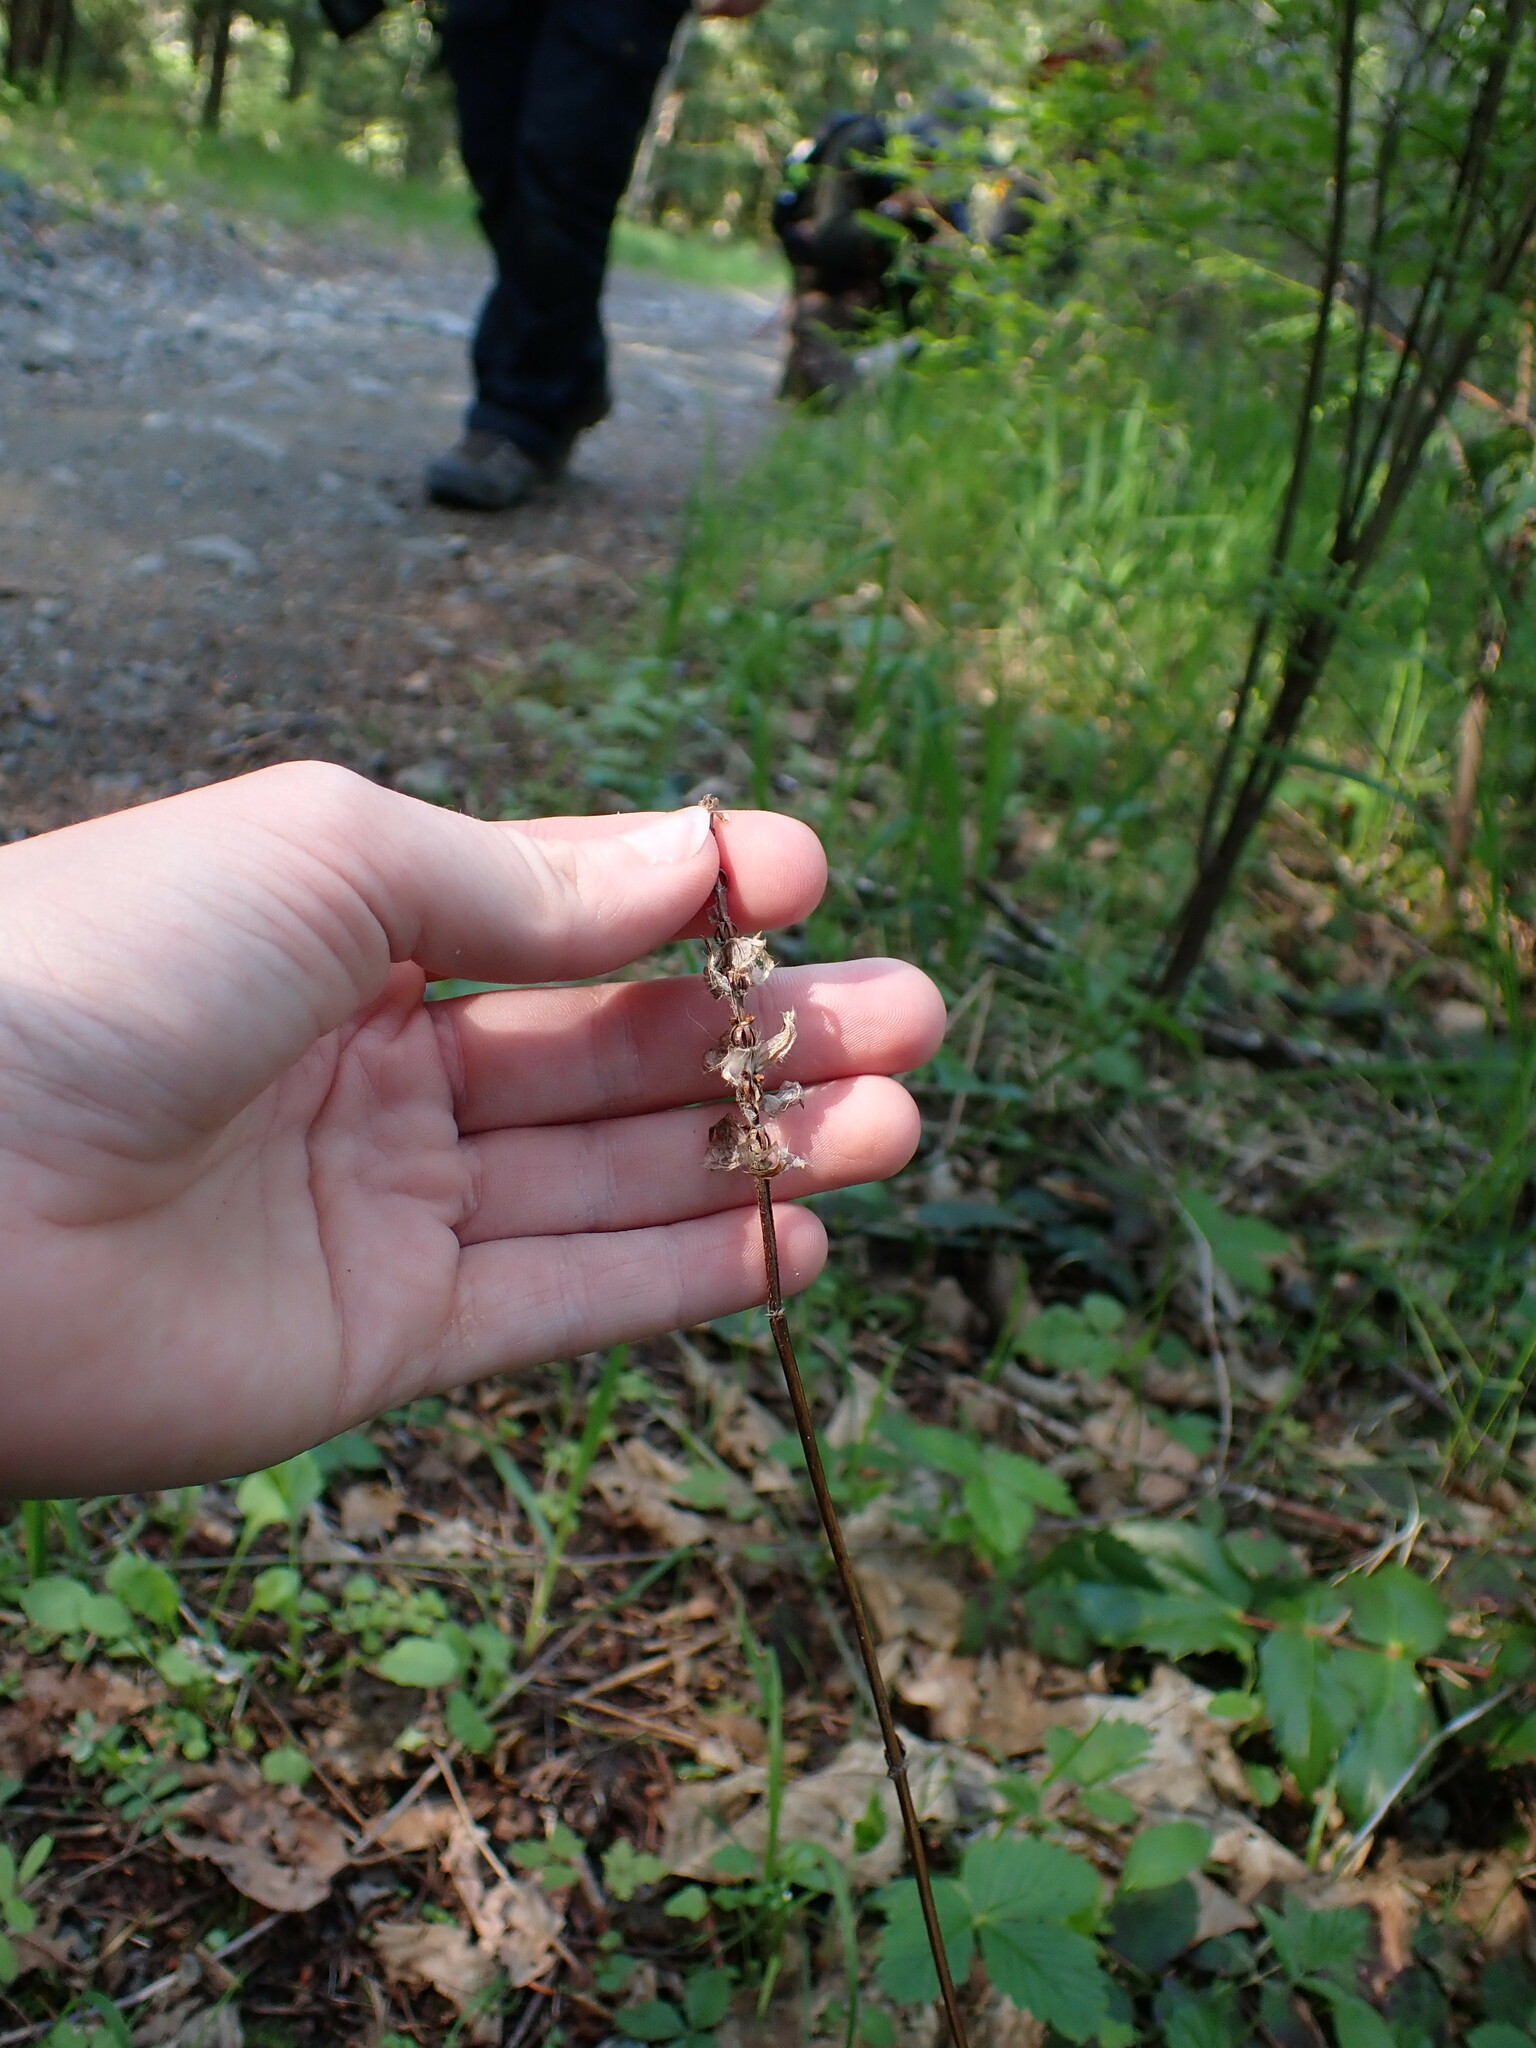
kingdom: Plantae
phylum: Tracheophyta
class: Magnoliopsida
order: Lamiales
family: Lamiaceae
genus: Prunella
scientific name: Prunella vulgaris
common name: Heal-all
